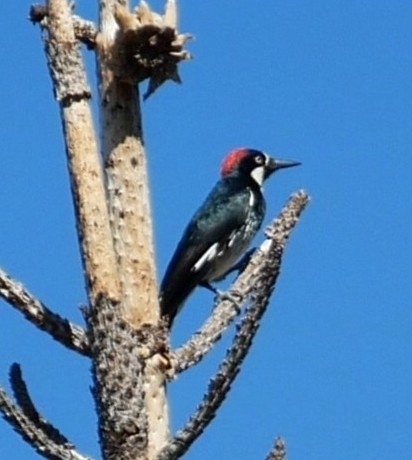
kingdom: Animalia
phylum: Chordata
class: Aves
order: Piciformes
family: Picidae
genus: Melanerpes
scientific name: Melanerpes formicivorus
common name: Acorn woodpecker
